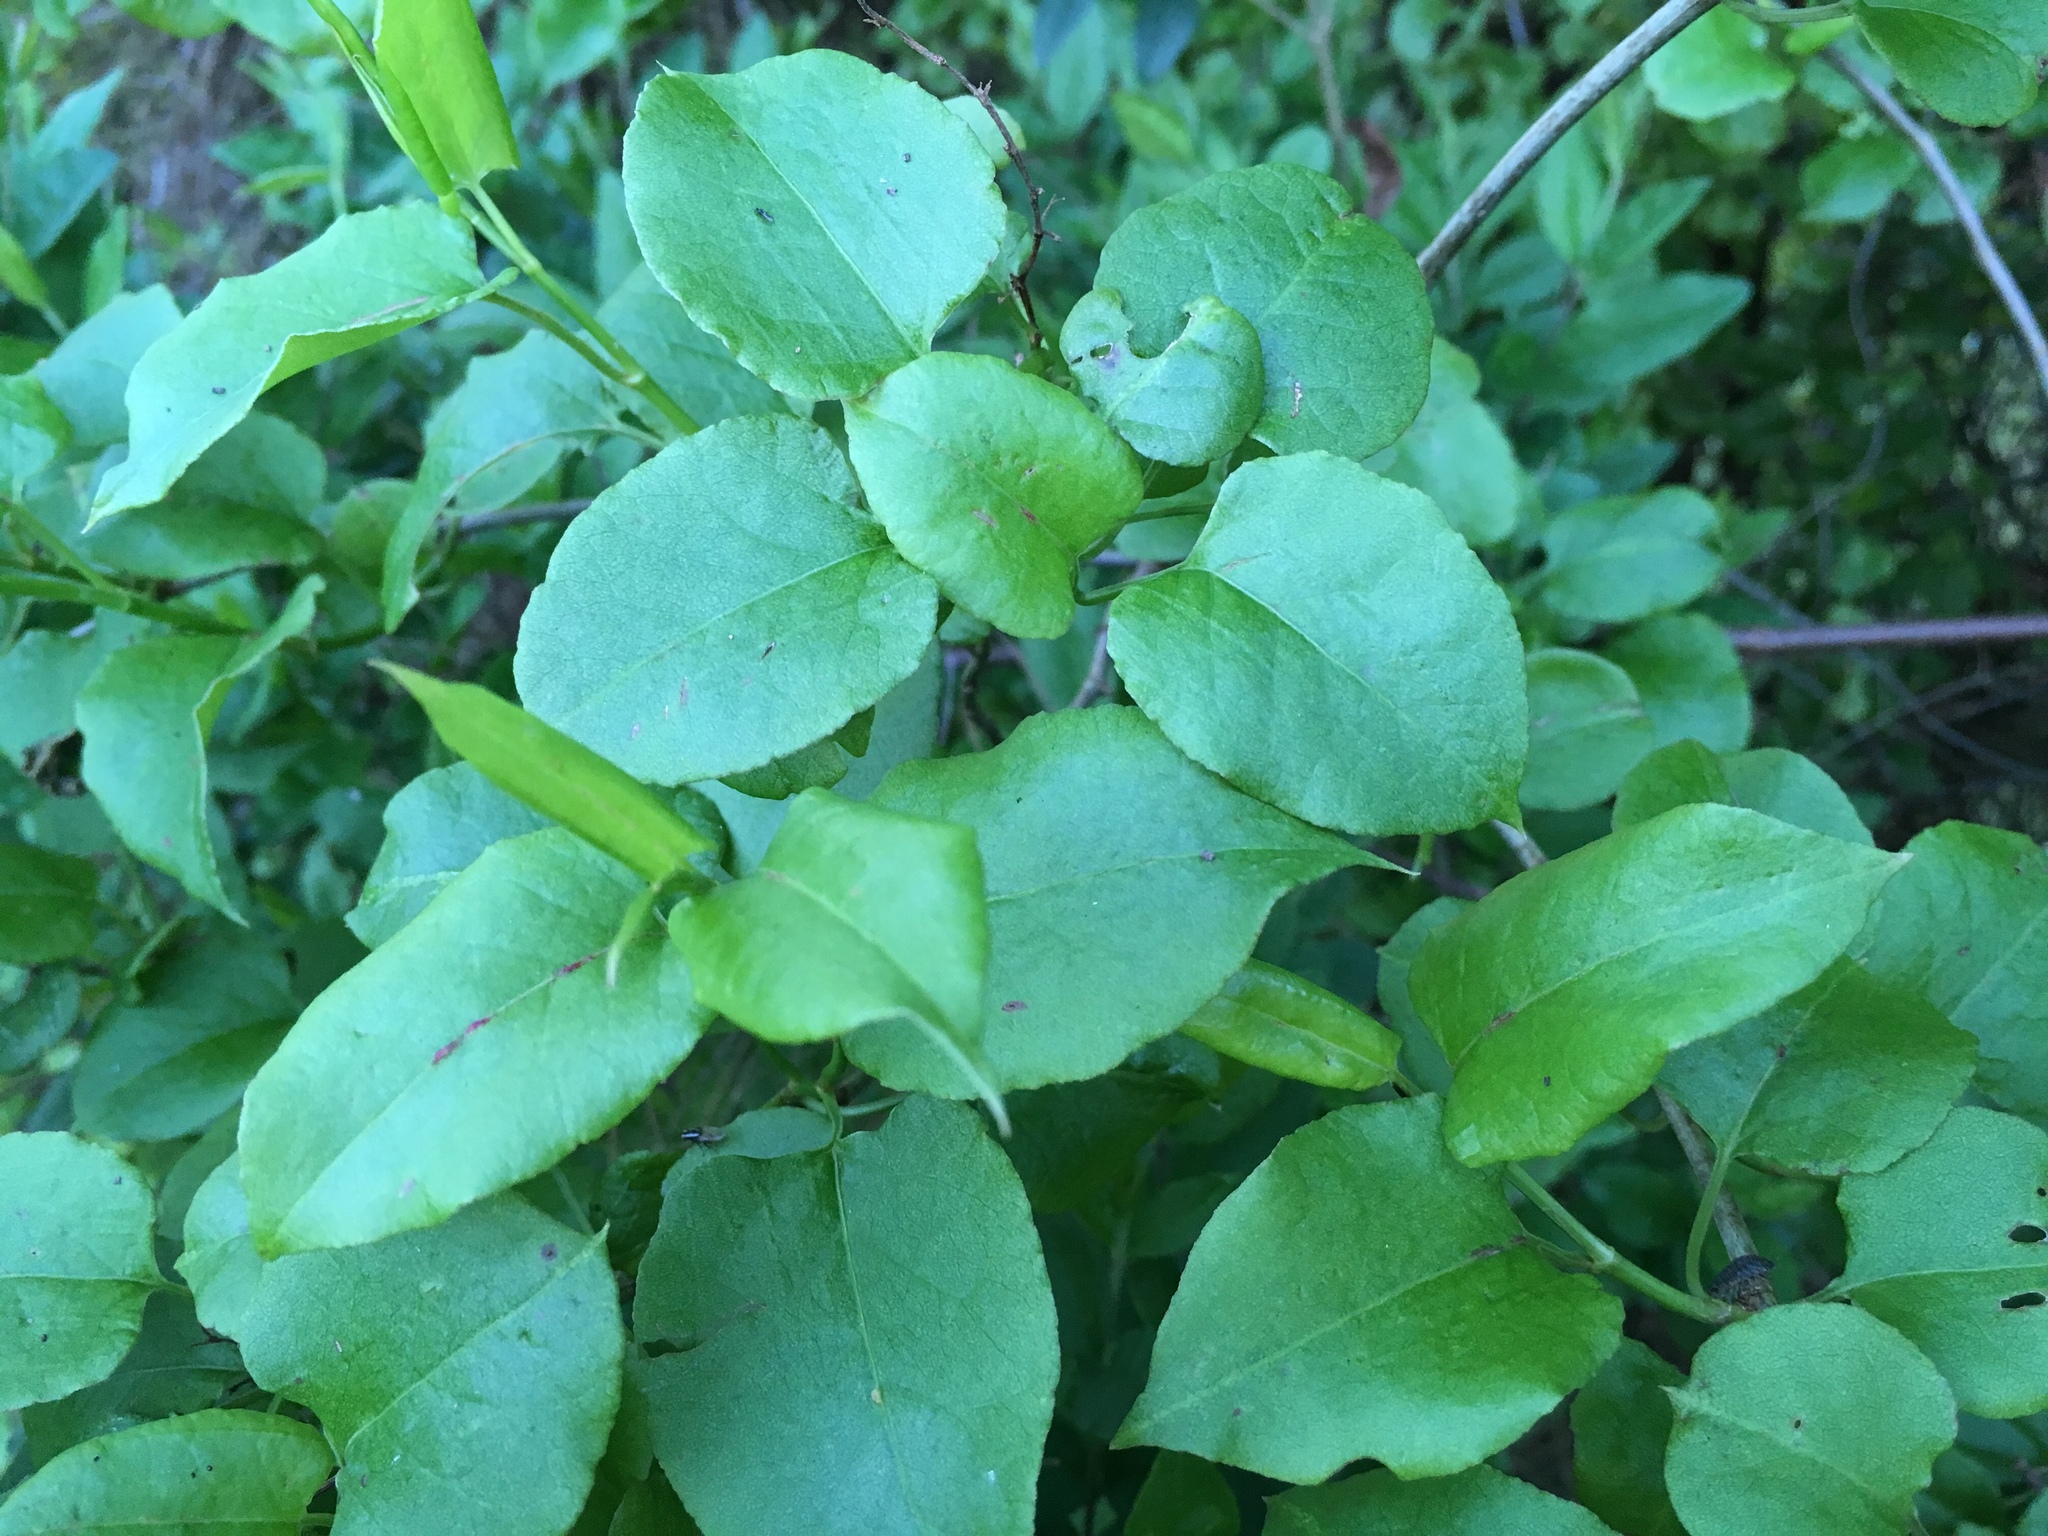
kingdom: Plantae
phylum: Tracheophyta
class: Magnoliopsida
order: Caryophyllales
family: Polygonaceae
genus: Muehlenbeckia
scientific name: Muehlenbeckia australis
